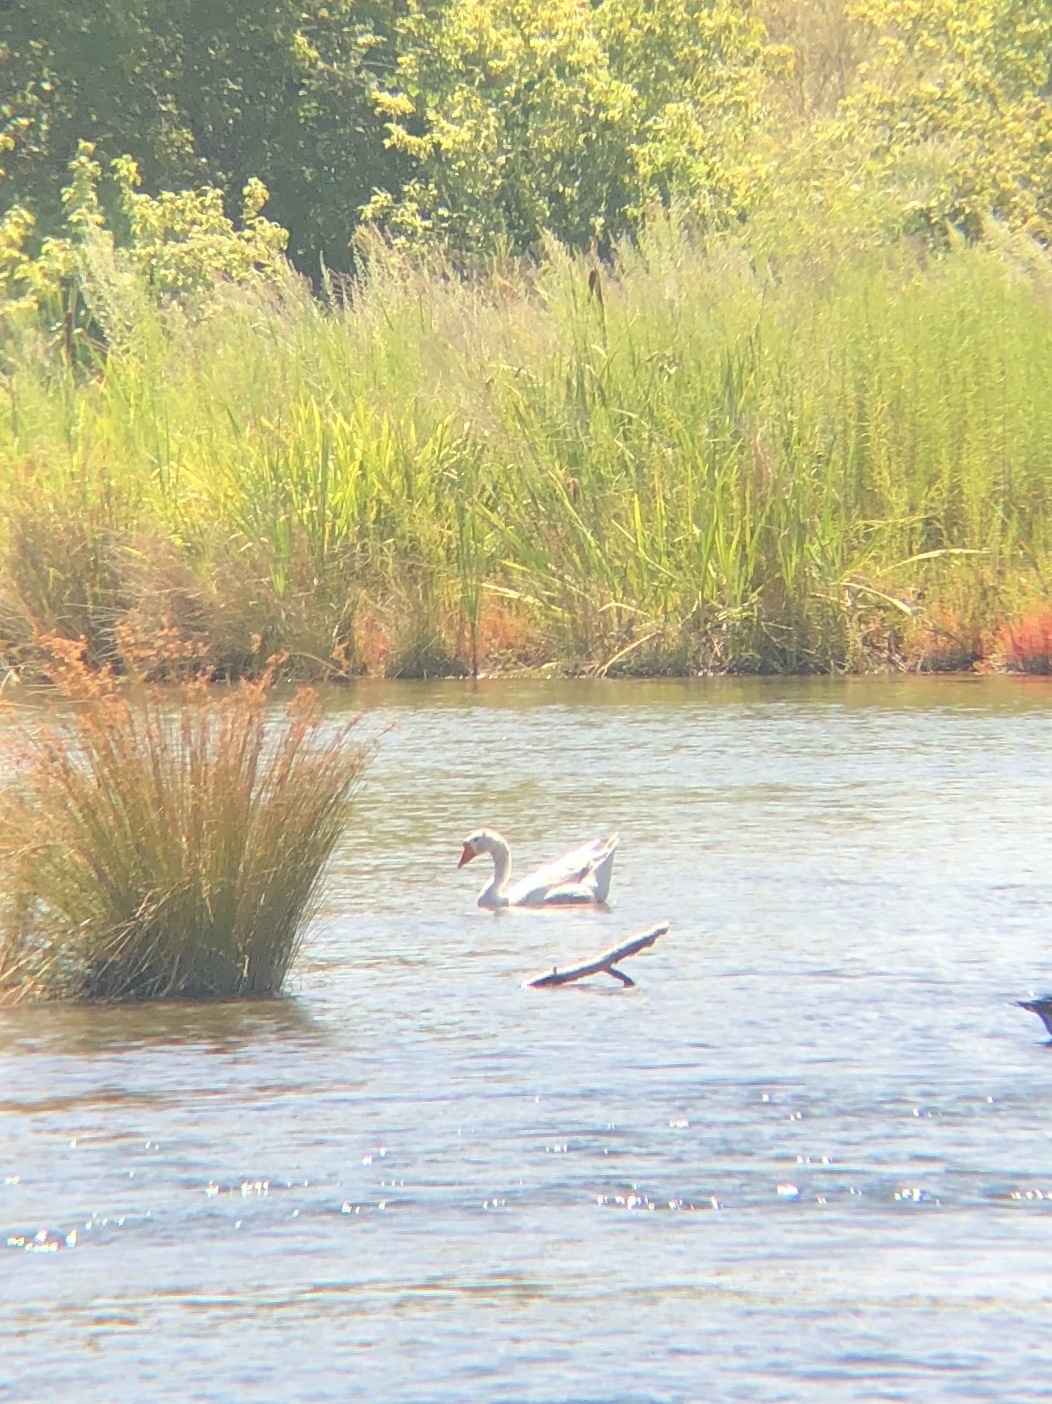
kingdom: Animalia
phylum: Chordata
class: Aves
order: Anseriformes
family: Anatidae
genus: Anser
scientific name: Anser anser
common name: Greylag goose
